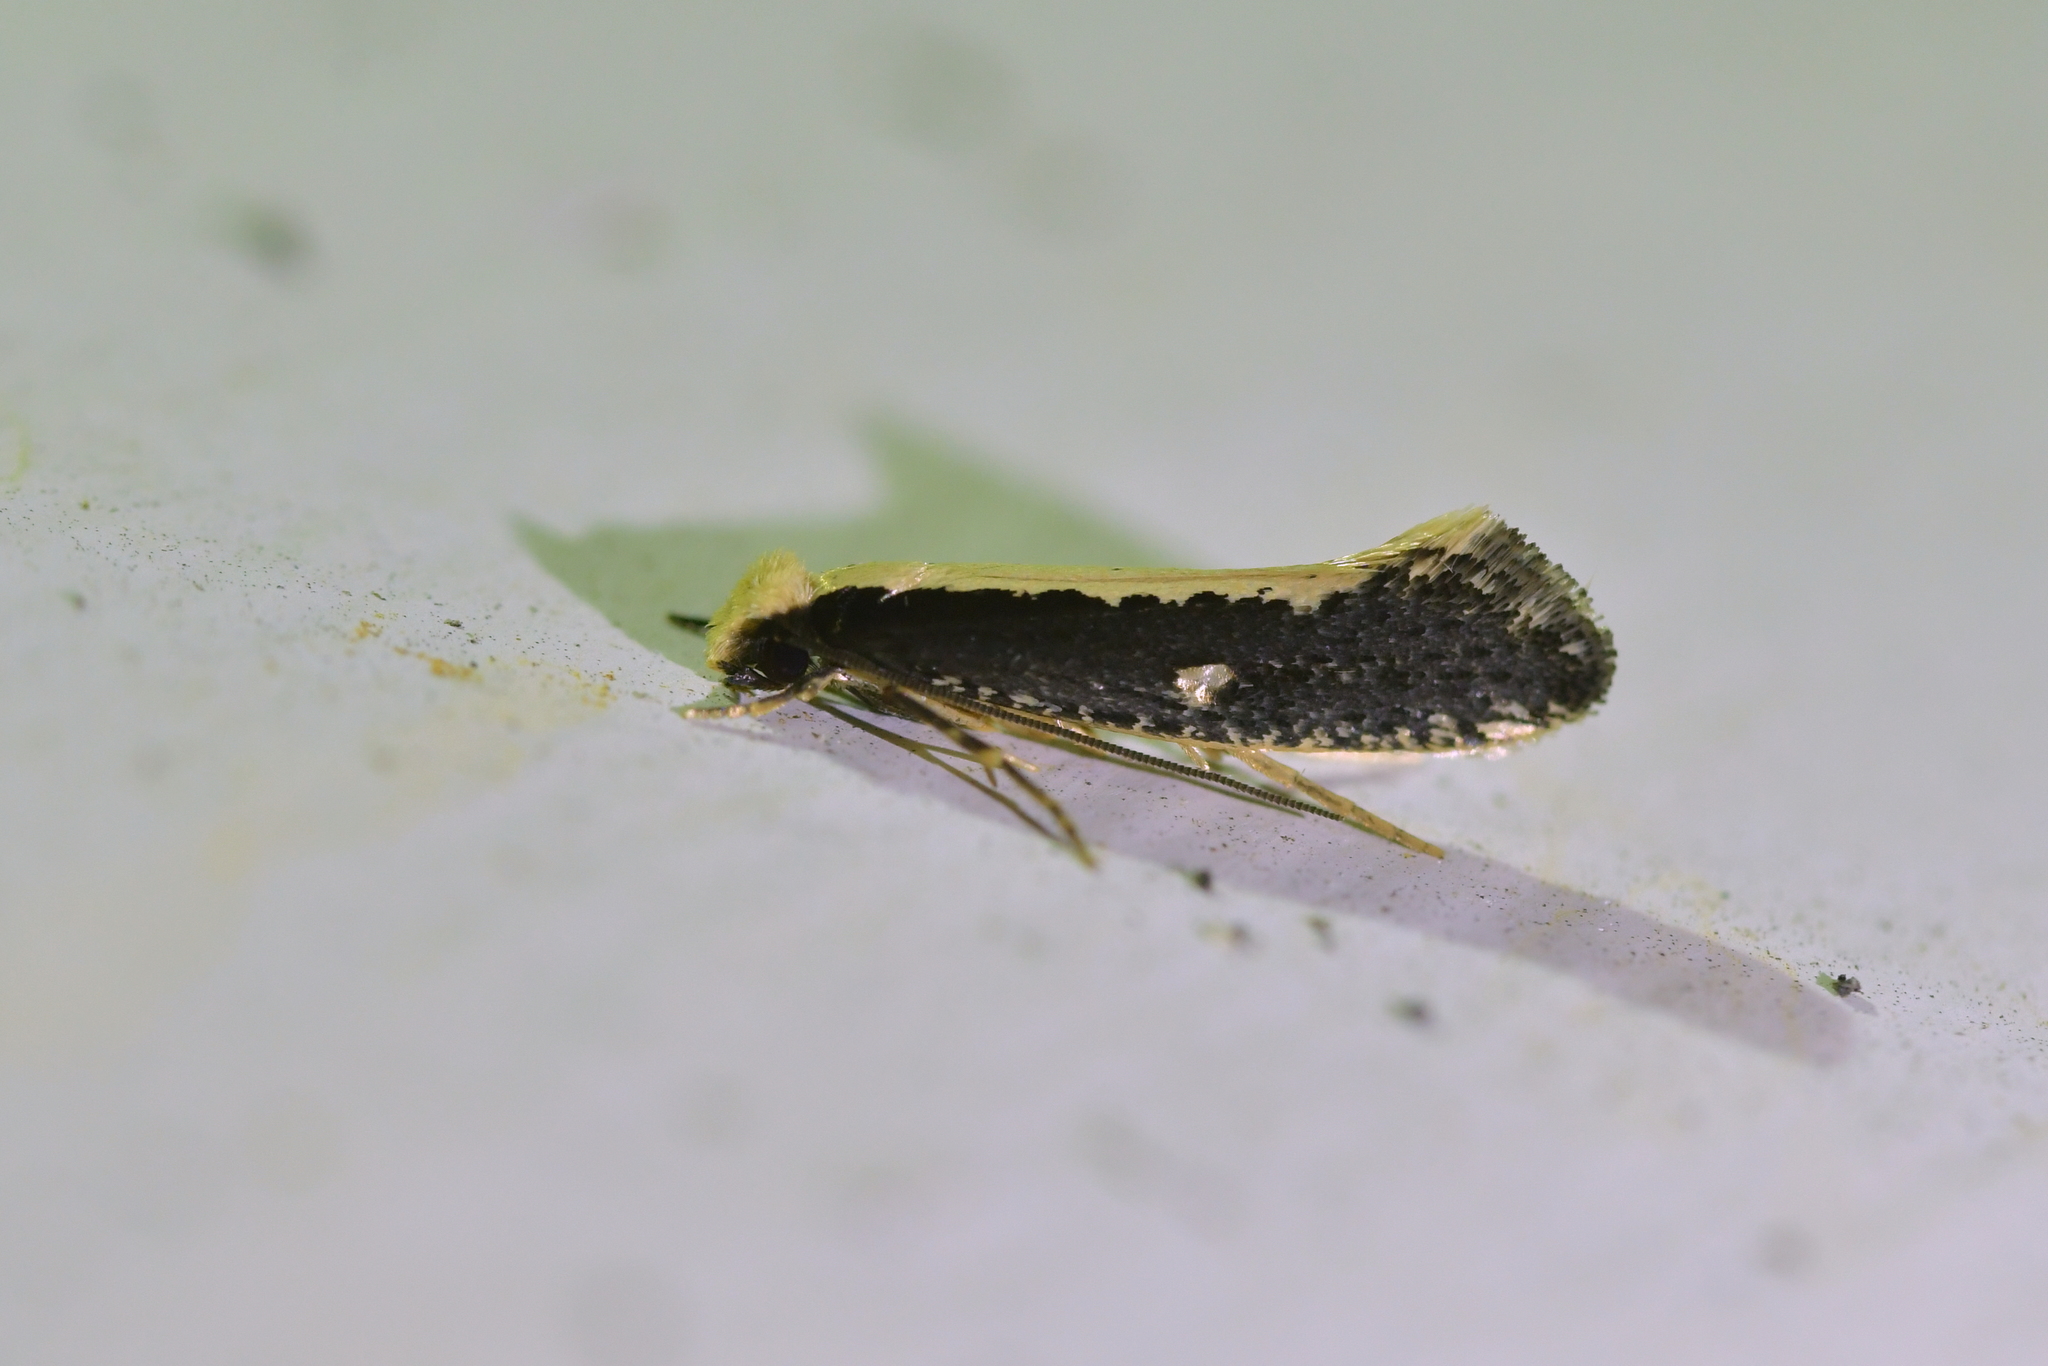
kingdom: Animalia
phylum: Arthropoda
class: Insecta
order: Lepidoptera
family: Tineidae
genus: Monopis
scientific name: Monopis ethelella
